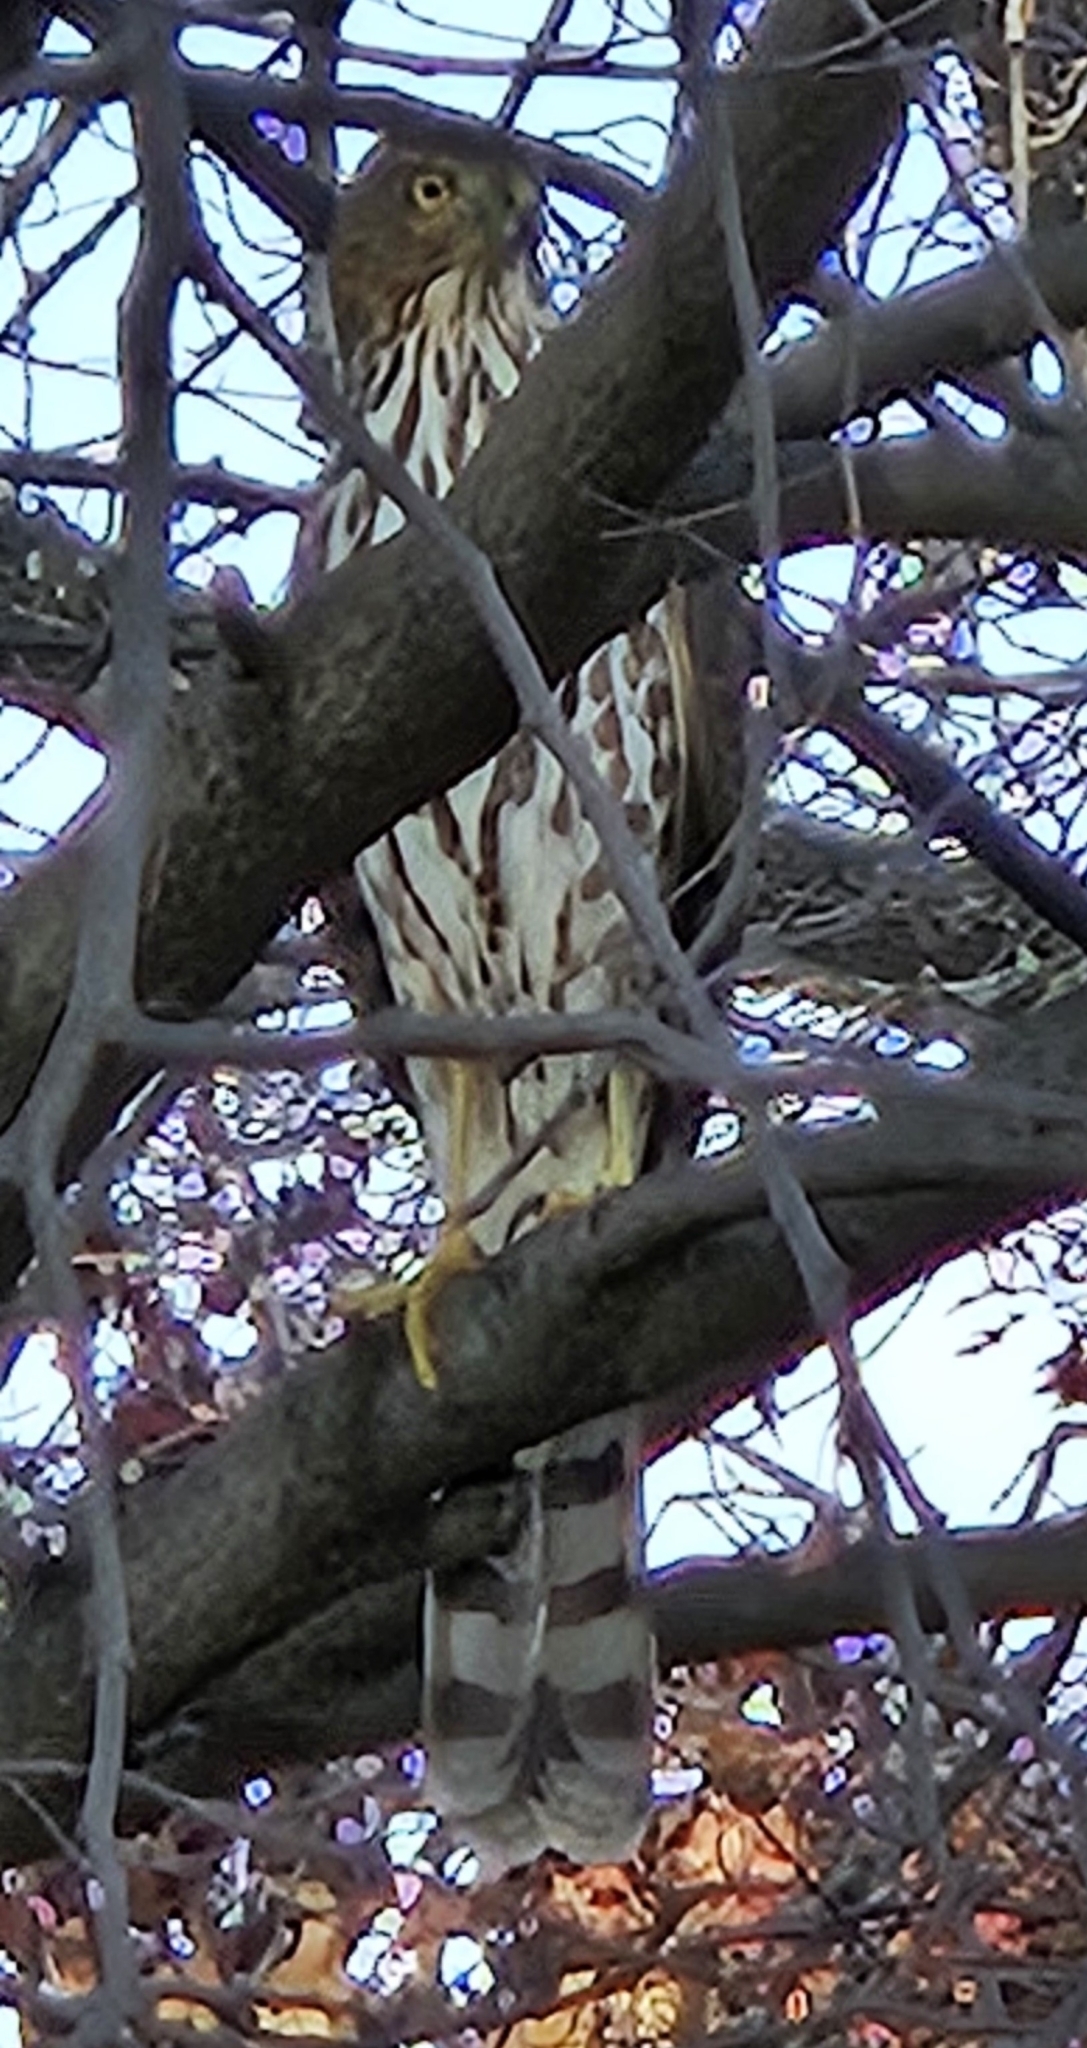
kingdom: Animalia
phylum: Chordata
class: Aves
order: Accipitriformes
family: Accipitridae
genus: Accipiter
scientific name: Accipiter cooperii
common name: Cooper's hawk
